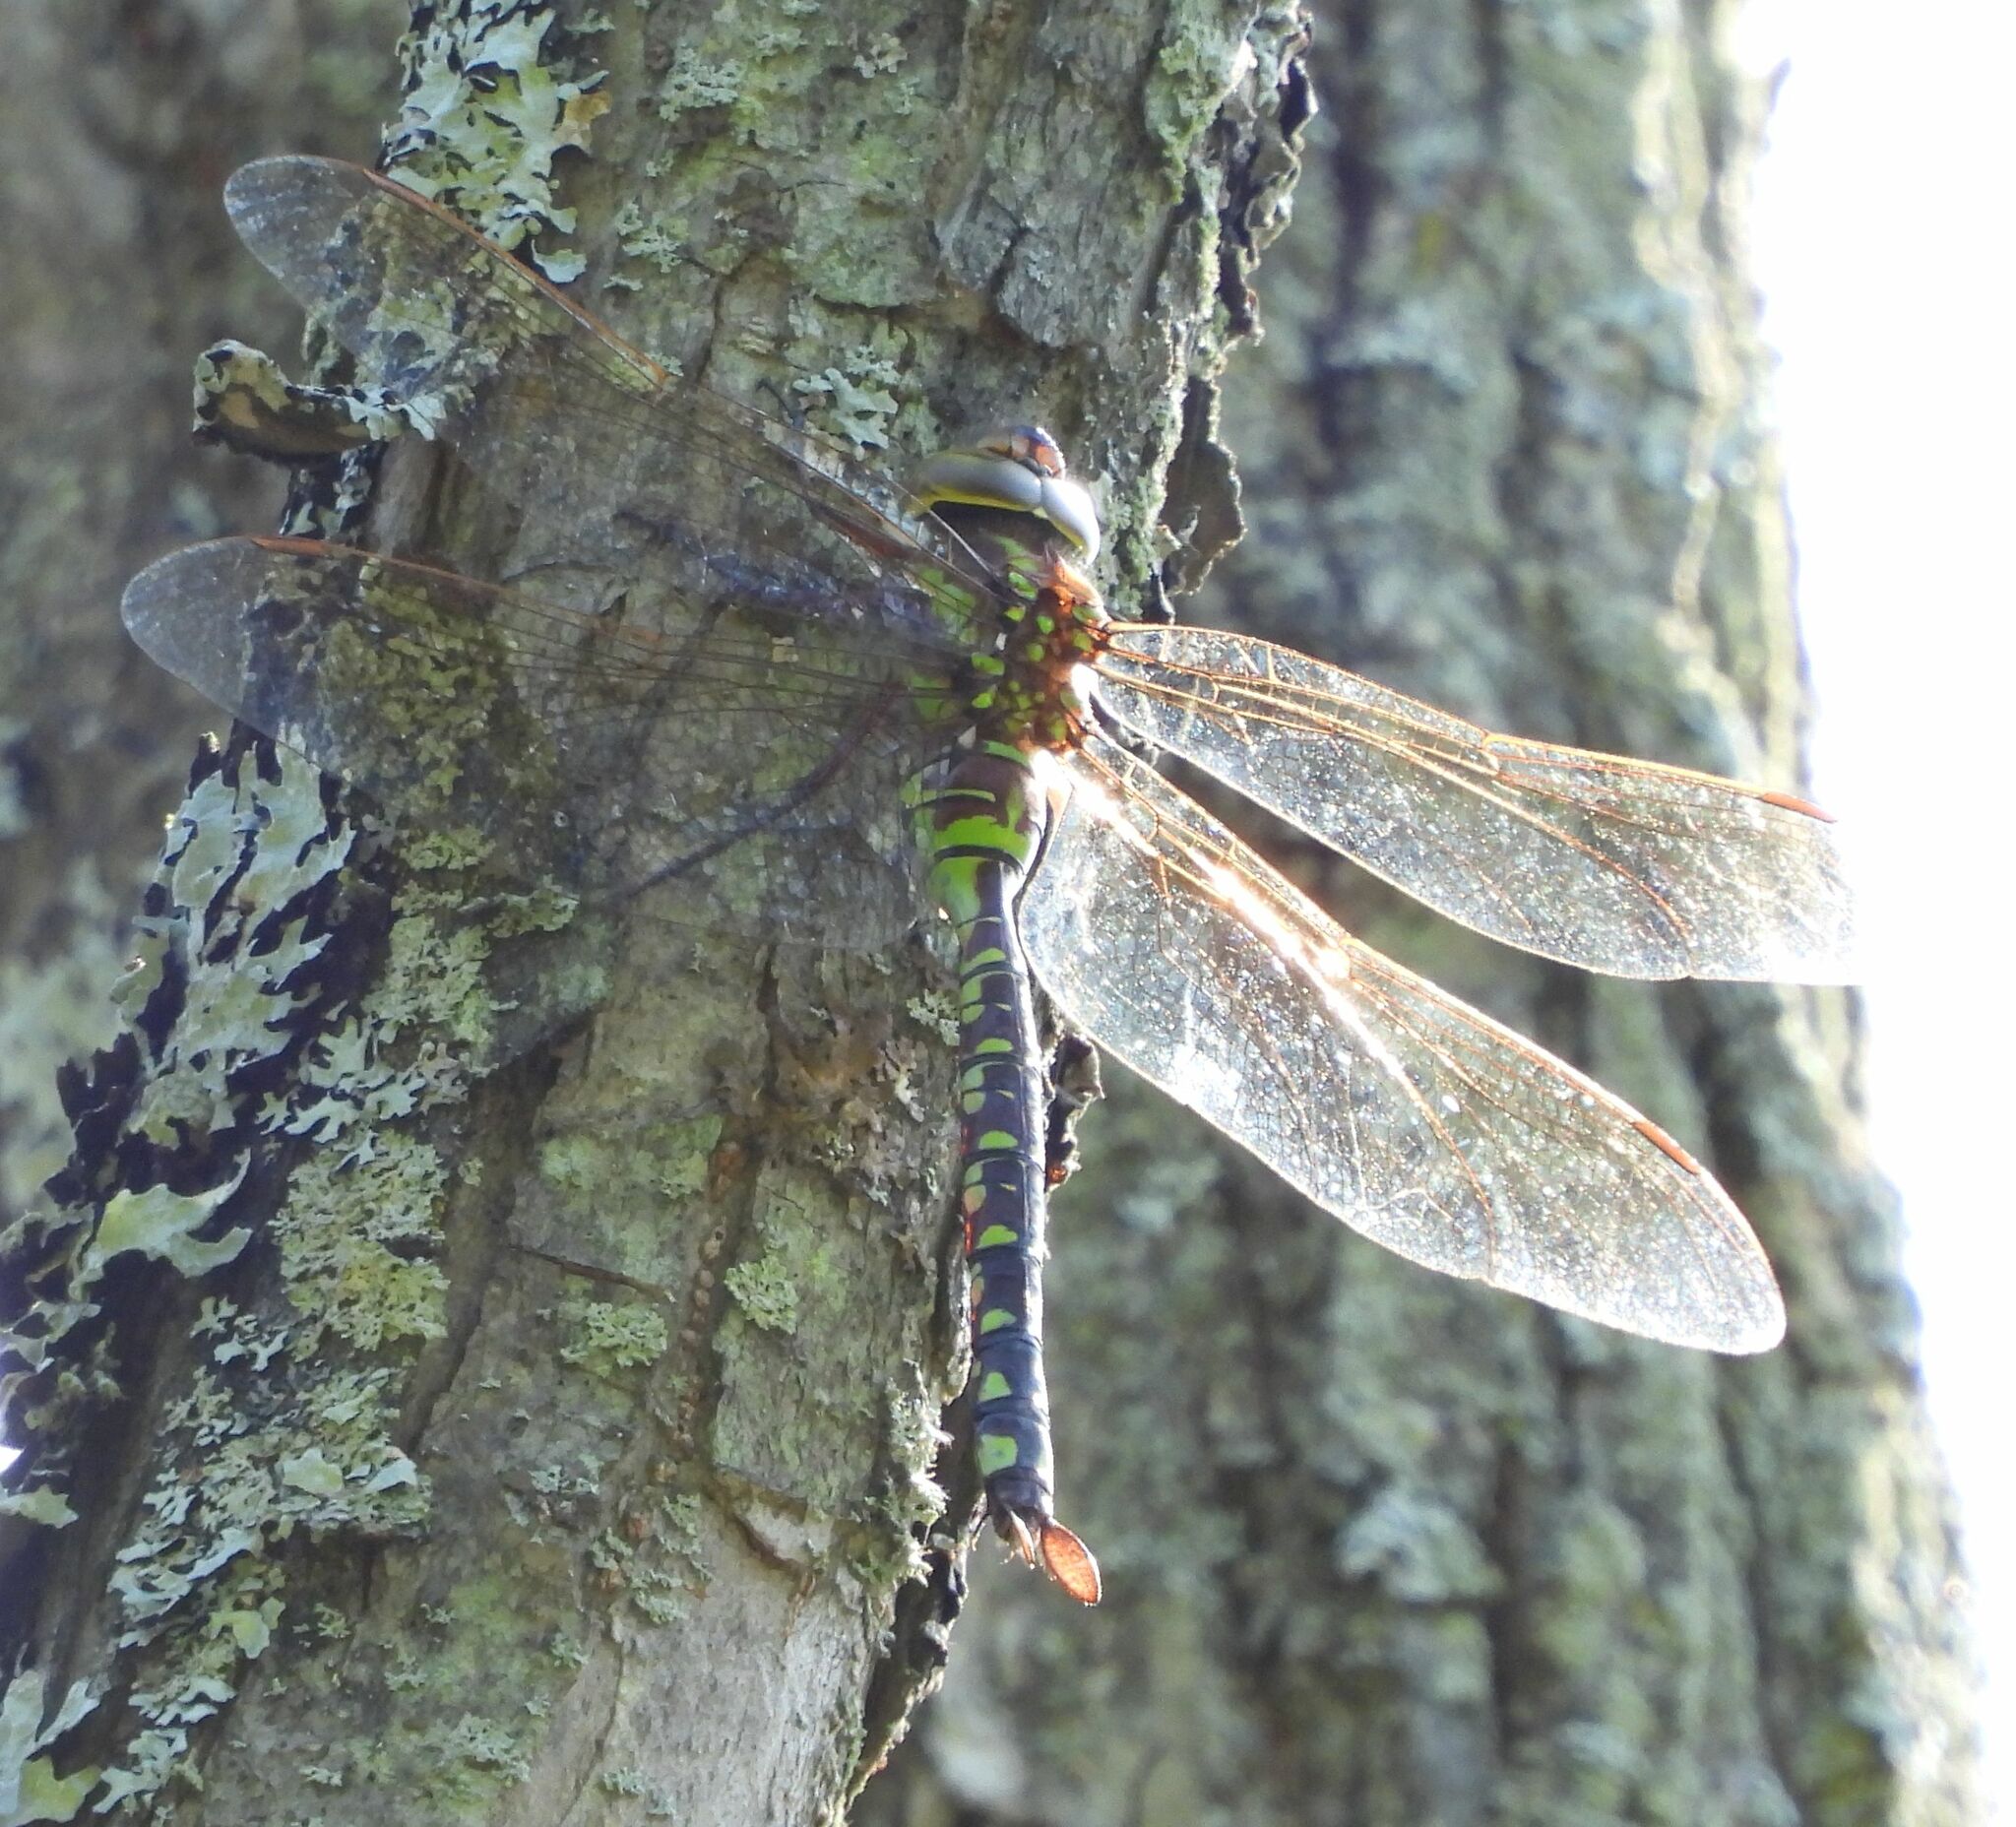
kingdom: Animalia
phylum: Arthropoda
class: Insecta
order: Odonata
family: Aeshnidae
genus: Aeshna
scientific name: Aeshna constricta
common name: Lance-tipped darner
